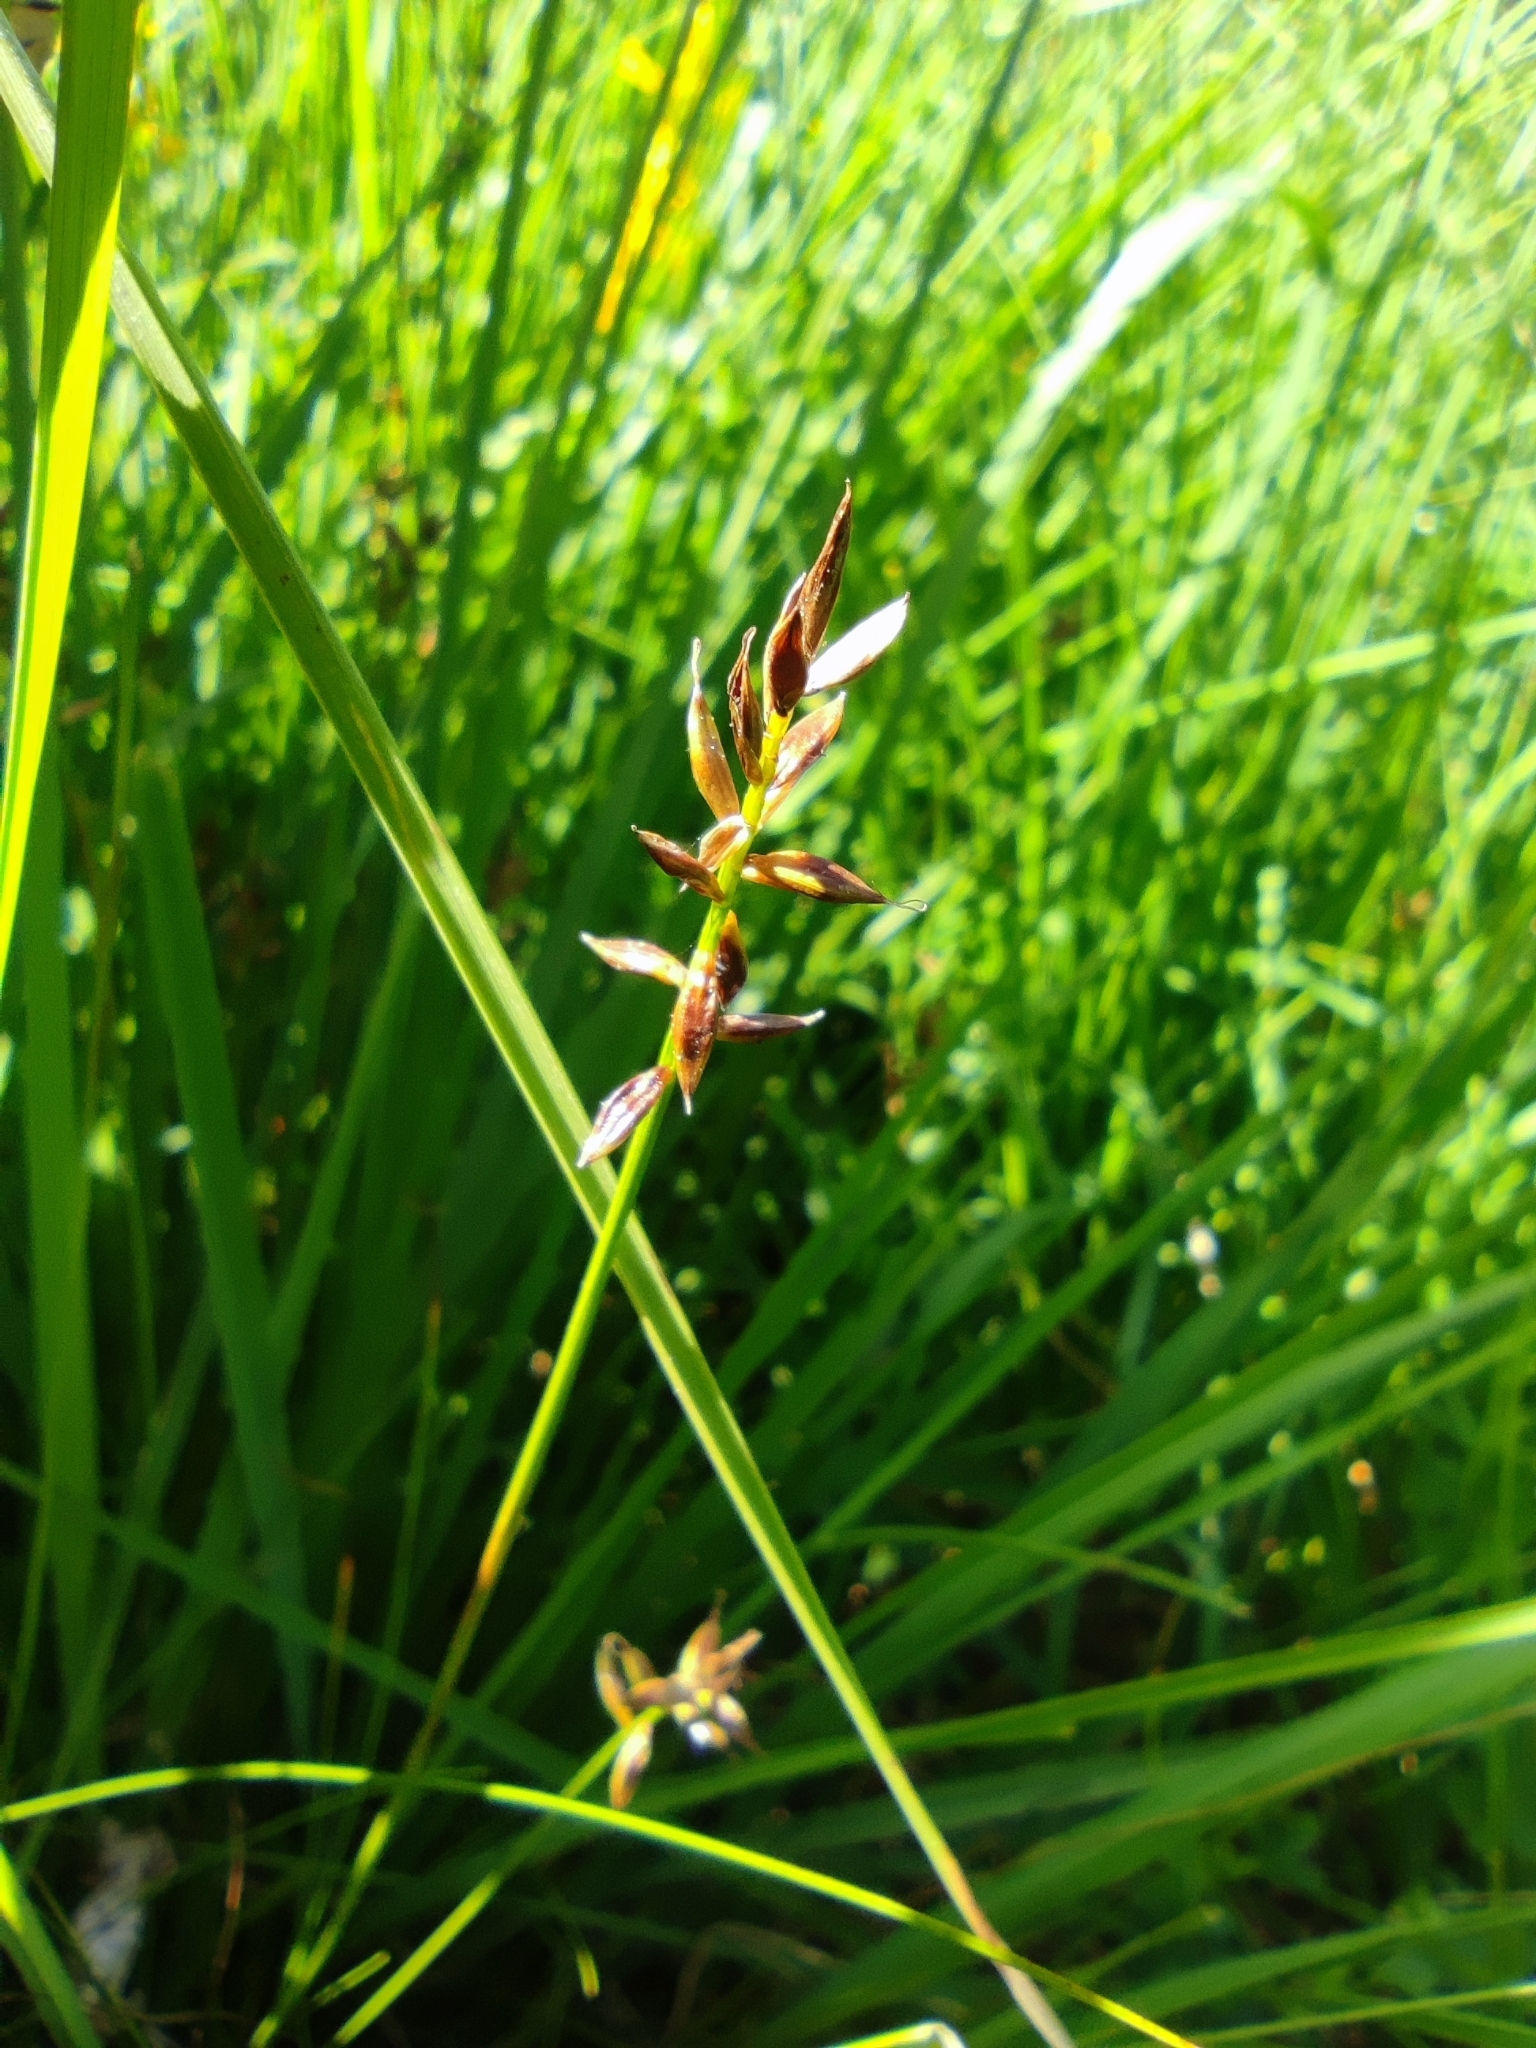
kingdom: Plantae
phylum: Tracheophyta
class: Liliopsida
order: Poales
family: Cyperaceae
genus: Carex
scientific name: Carex pulicaris
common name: Flea sedge
